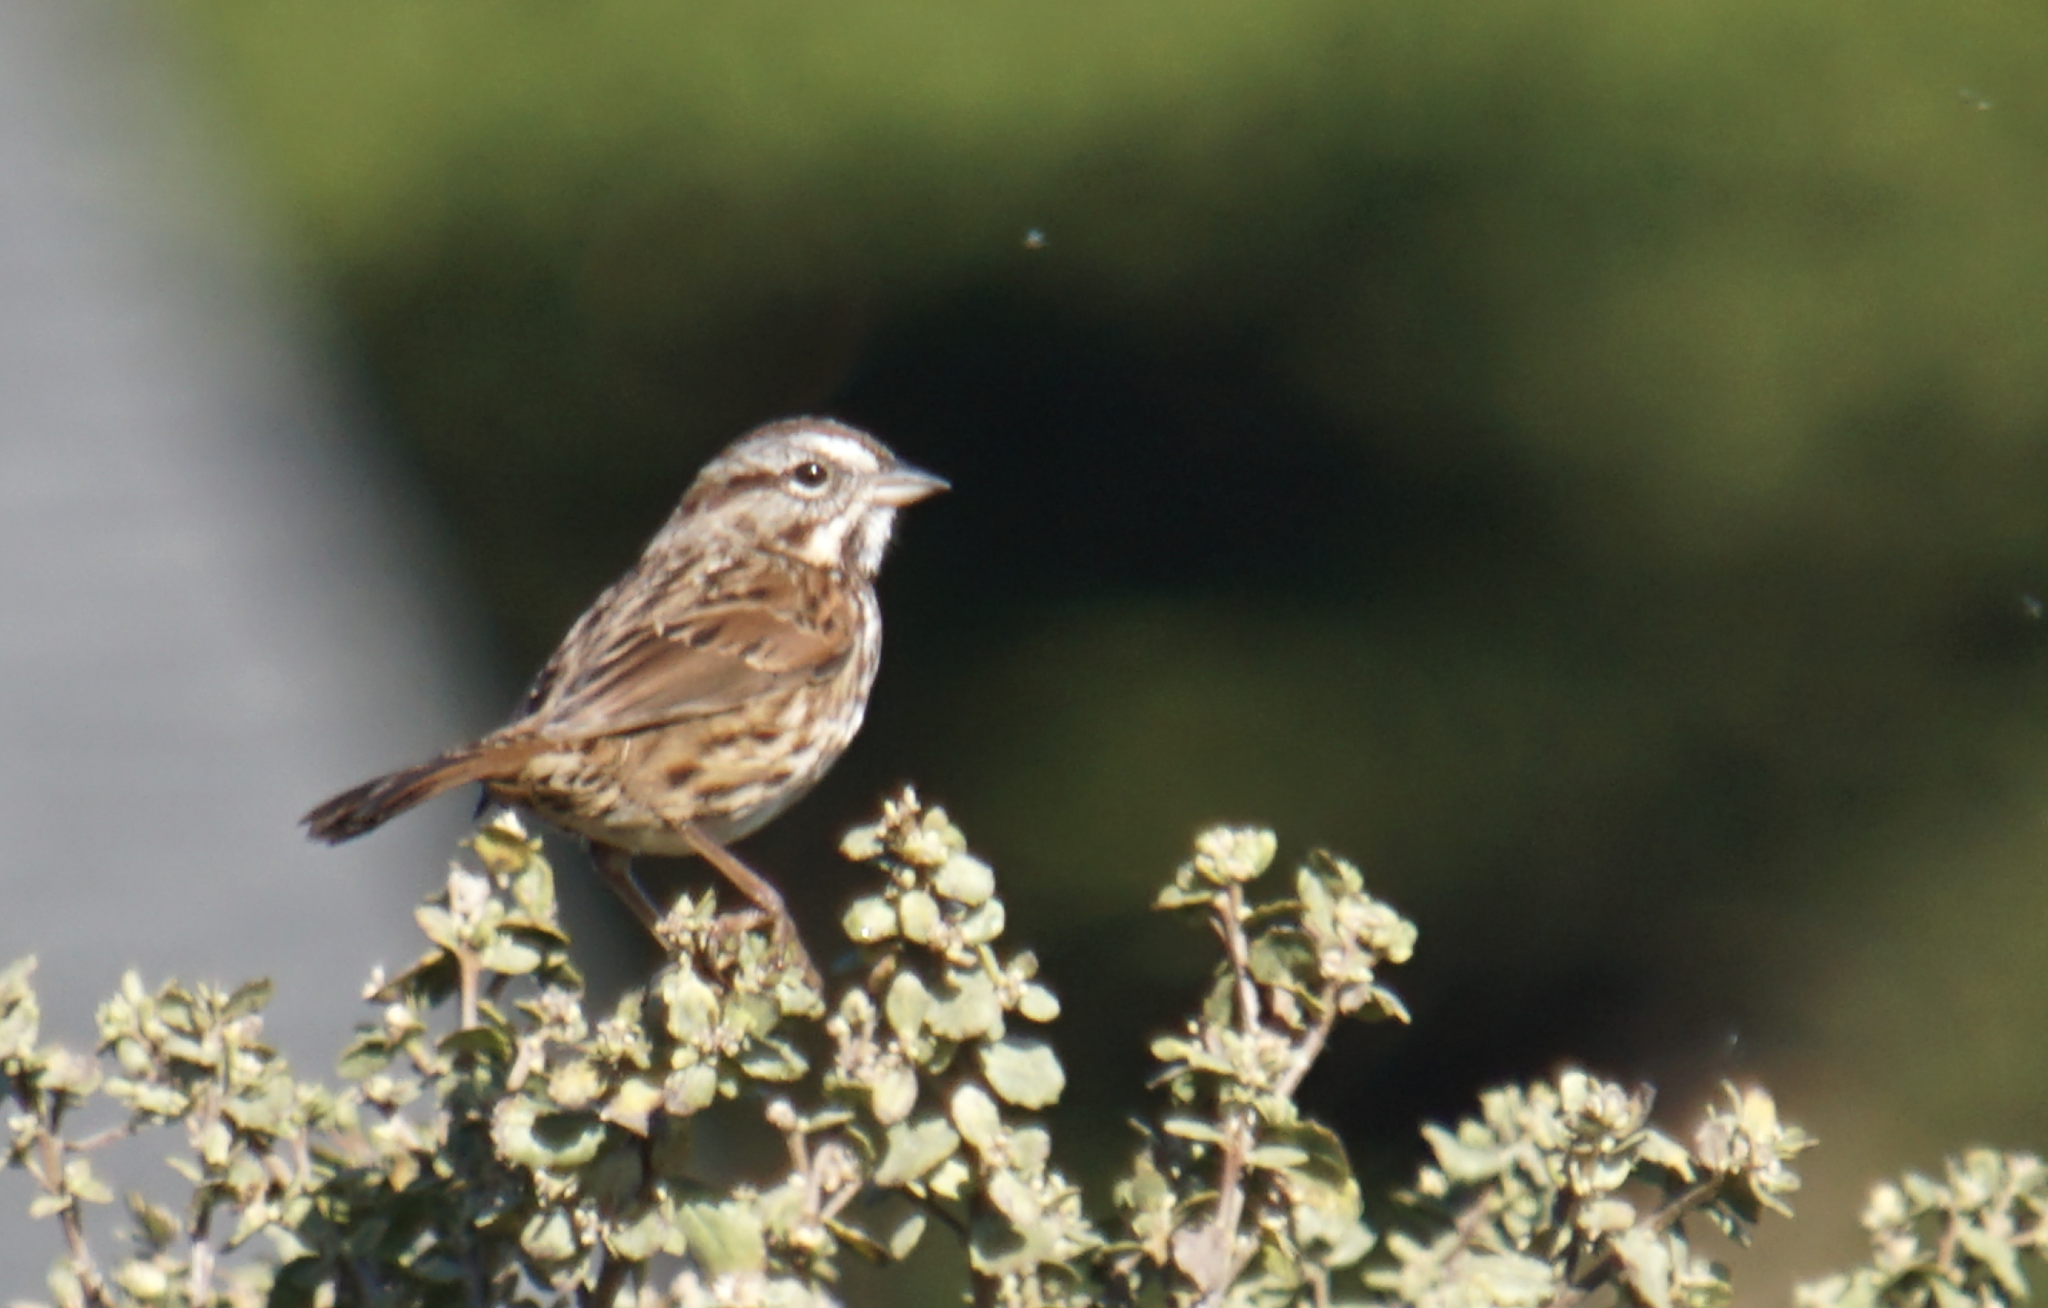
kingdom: Animalia
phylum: Chordata
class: Aves
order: Passeriformes
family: Passerellidae
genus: Melospiza
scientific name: Melospiza melodia
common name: Song sparrow
